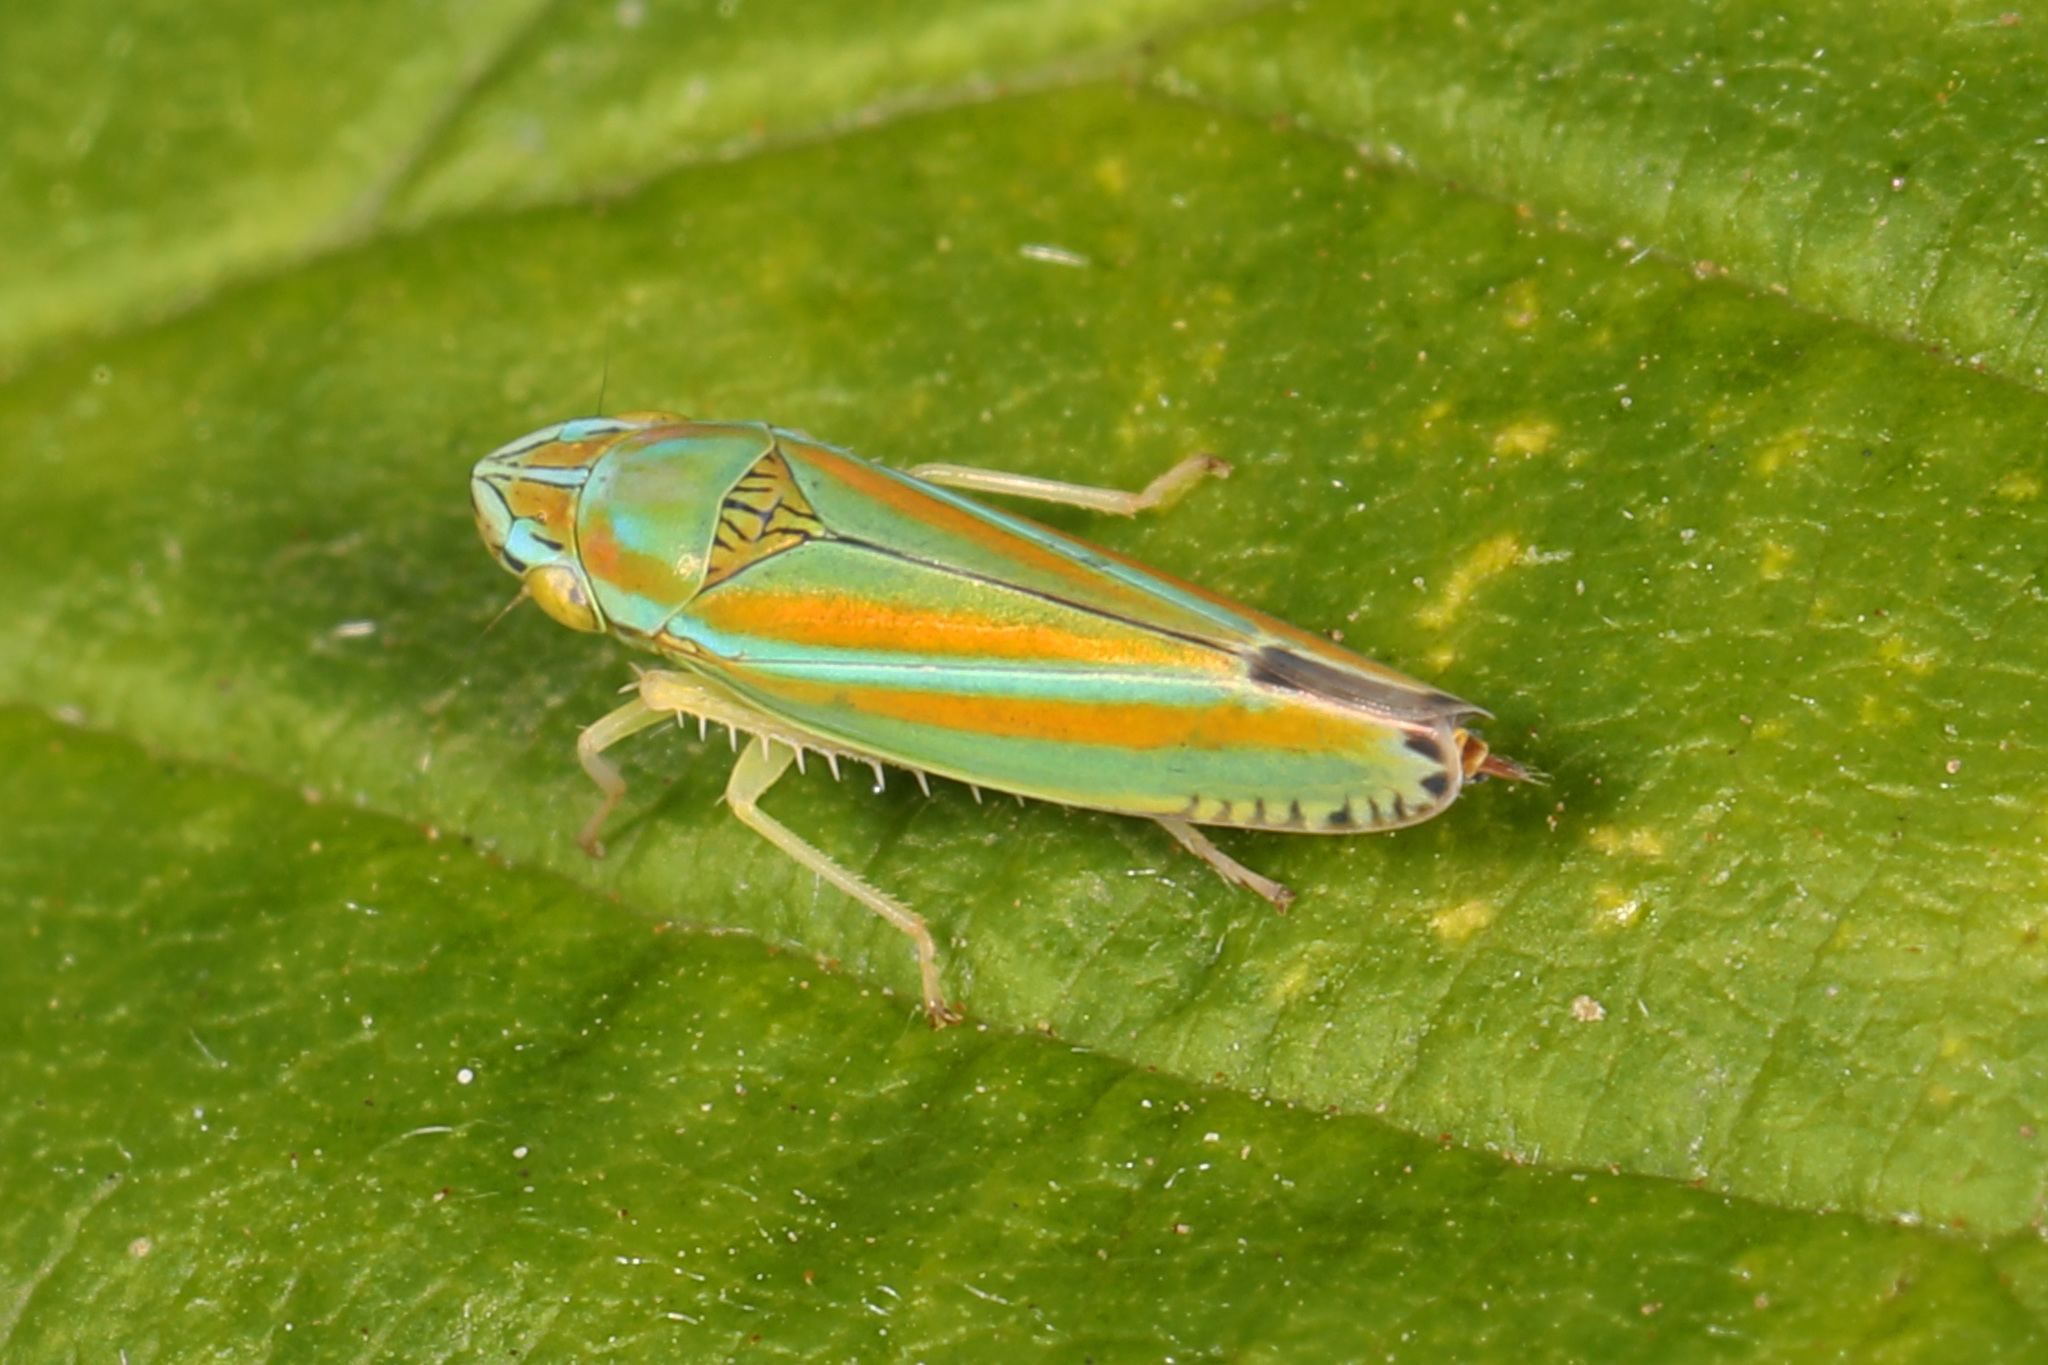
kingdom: Animalia
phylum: Arthropoda
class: Insecta
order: Hemiptera
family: Cicadellidae
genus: Graphocephala
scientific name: Graphocephala versuta
